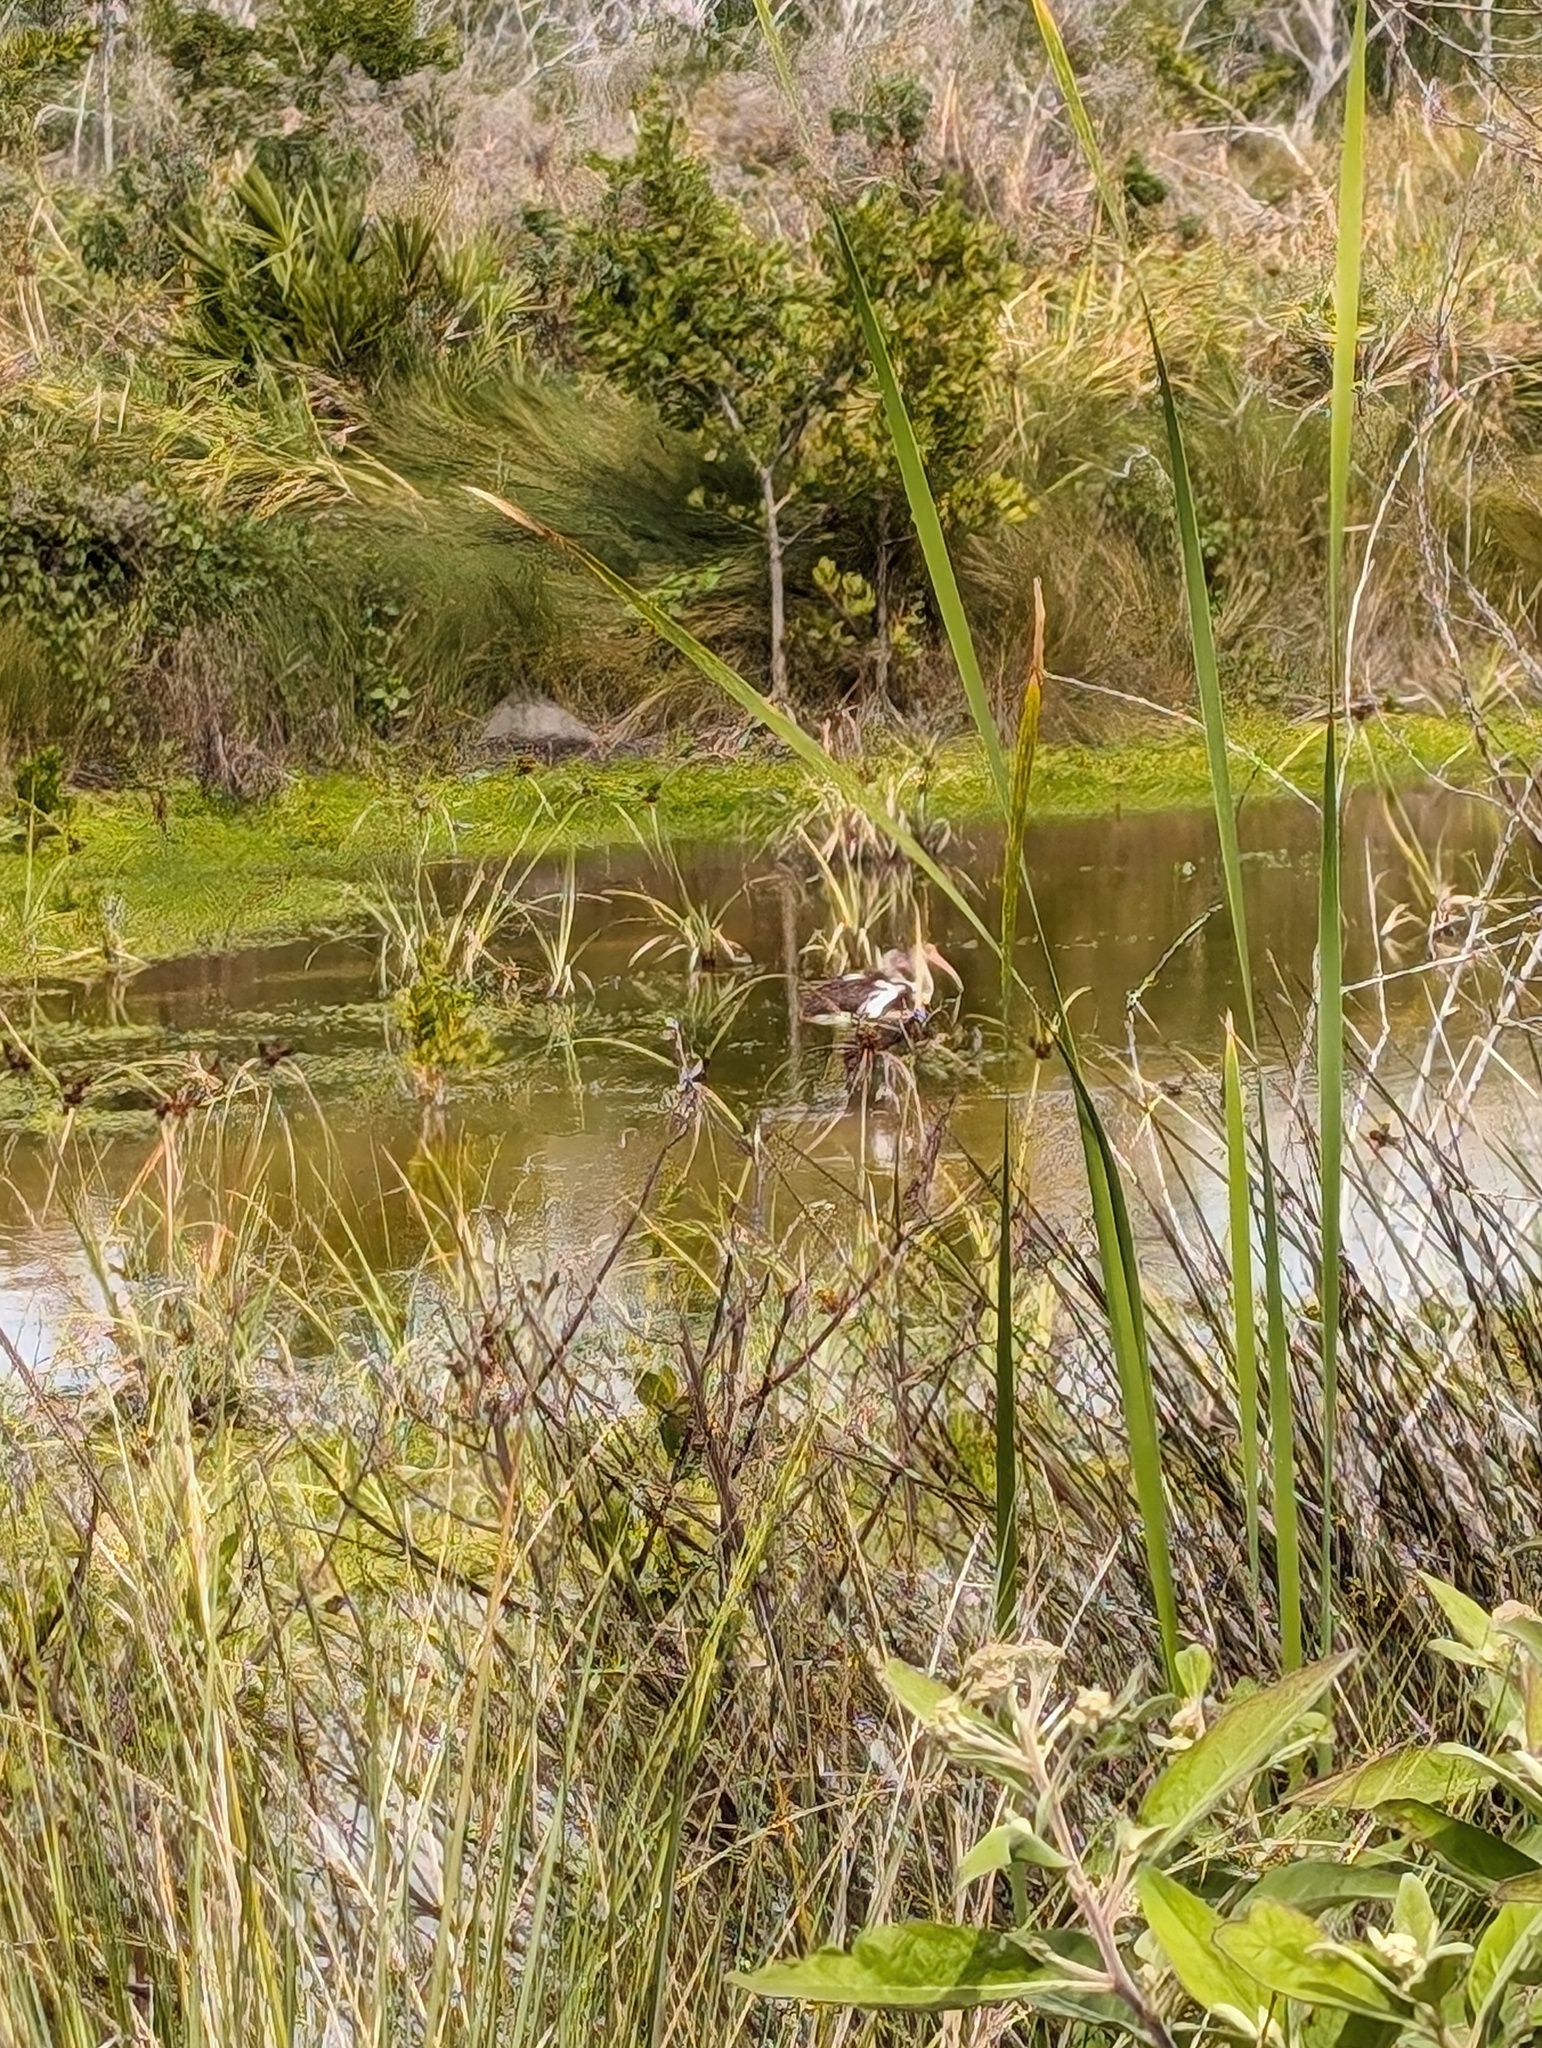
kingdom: Animalia
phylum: Chordata
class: Aves
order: Pelecaniformes
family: Threskiornithidae
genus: Eudocimus
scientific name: Eudocimus albus
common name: White ibis
